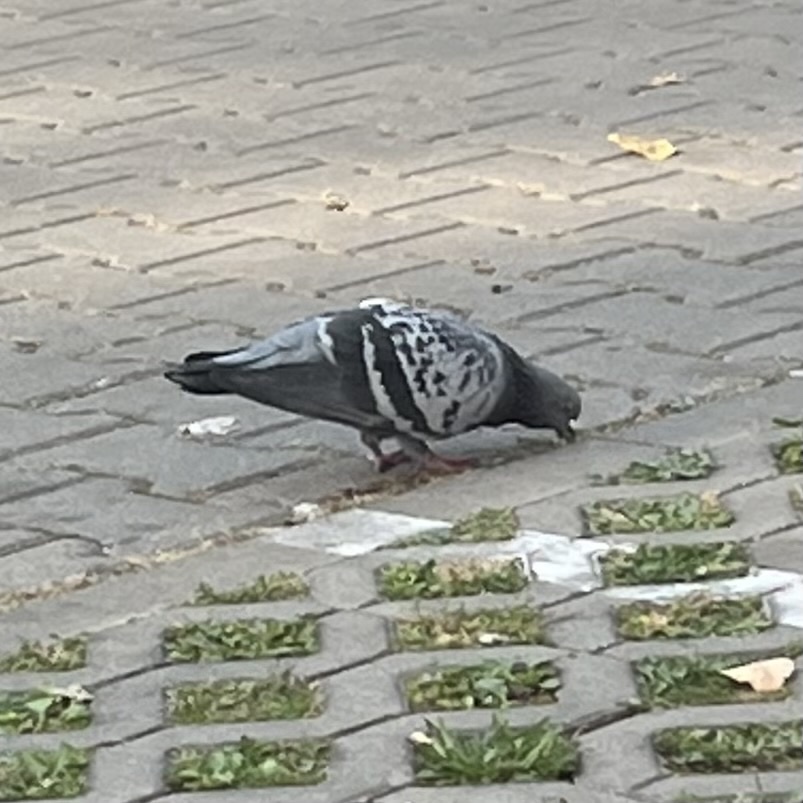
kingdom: Animalia
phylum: Chordata
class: Aves
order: Columbiformes
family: Columbidae
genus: Columba
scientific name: Columba livia
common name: Rock pigeon
